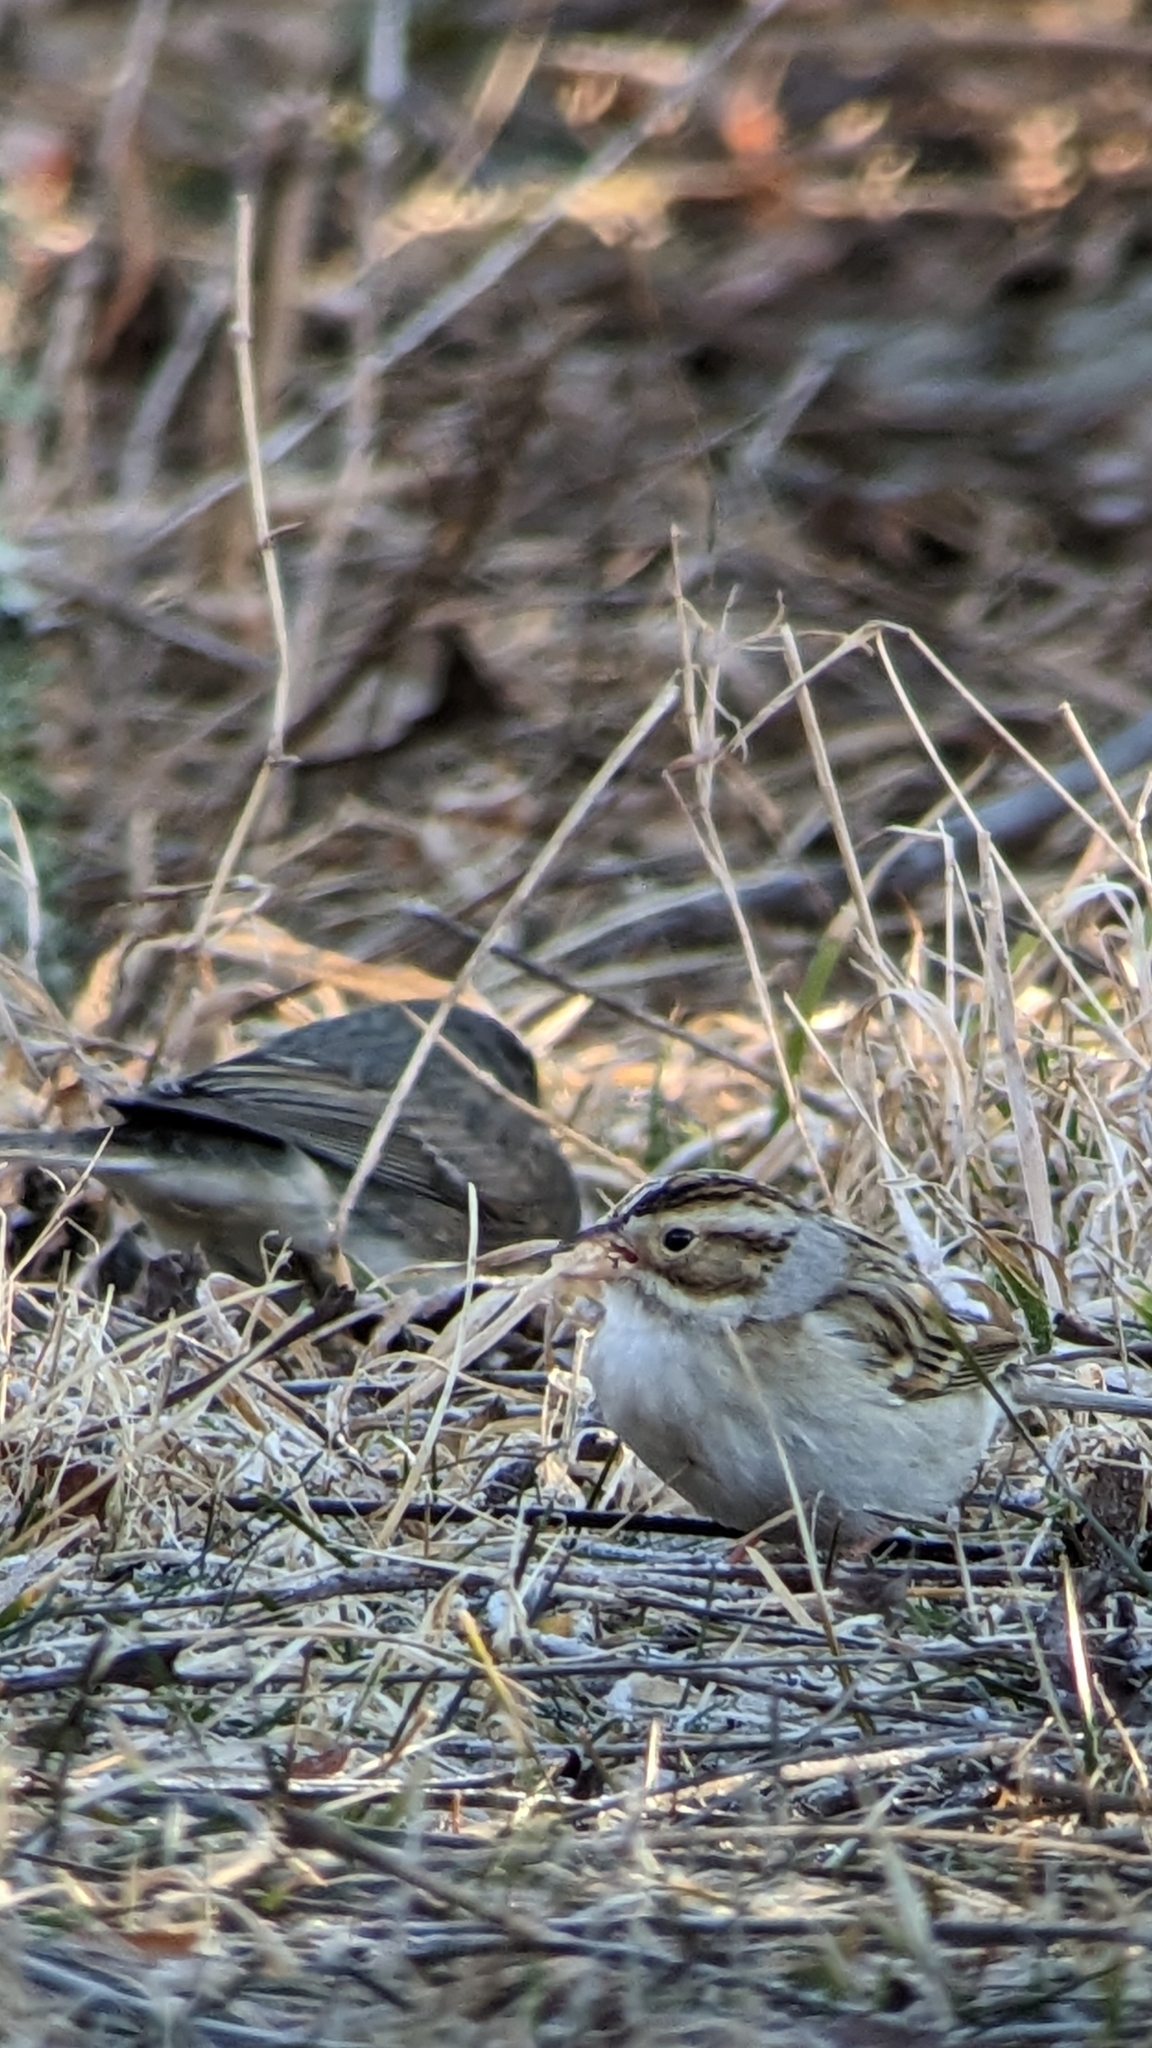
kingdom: Animalia
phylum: Chordata
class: Aves
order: Passeriformes
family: Passerellidae
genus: Spizella
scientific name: Spizella pallida
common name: Clay-colored sparrow
